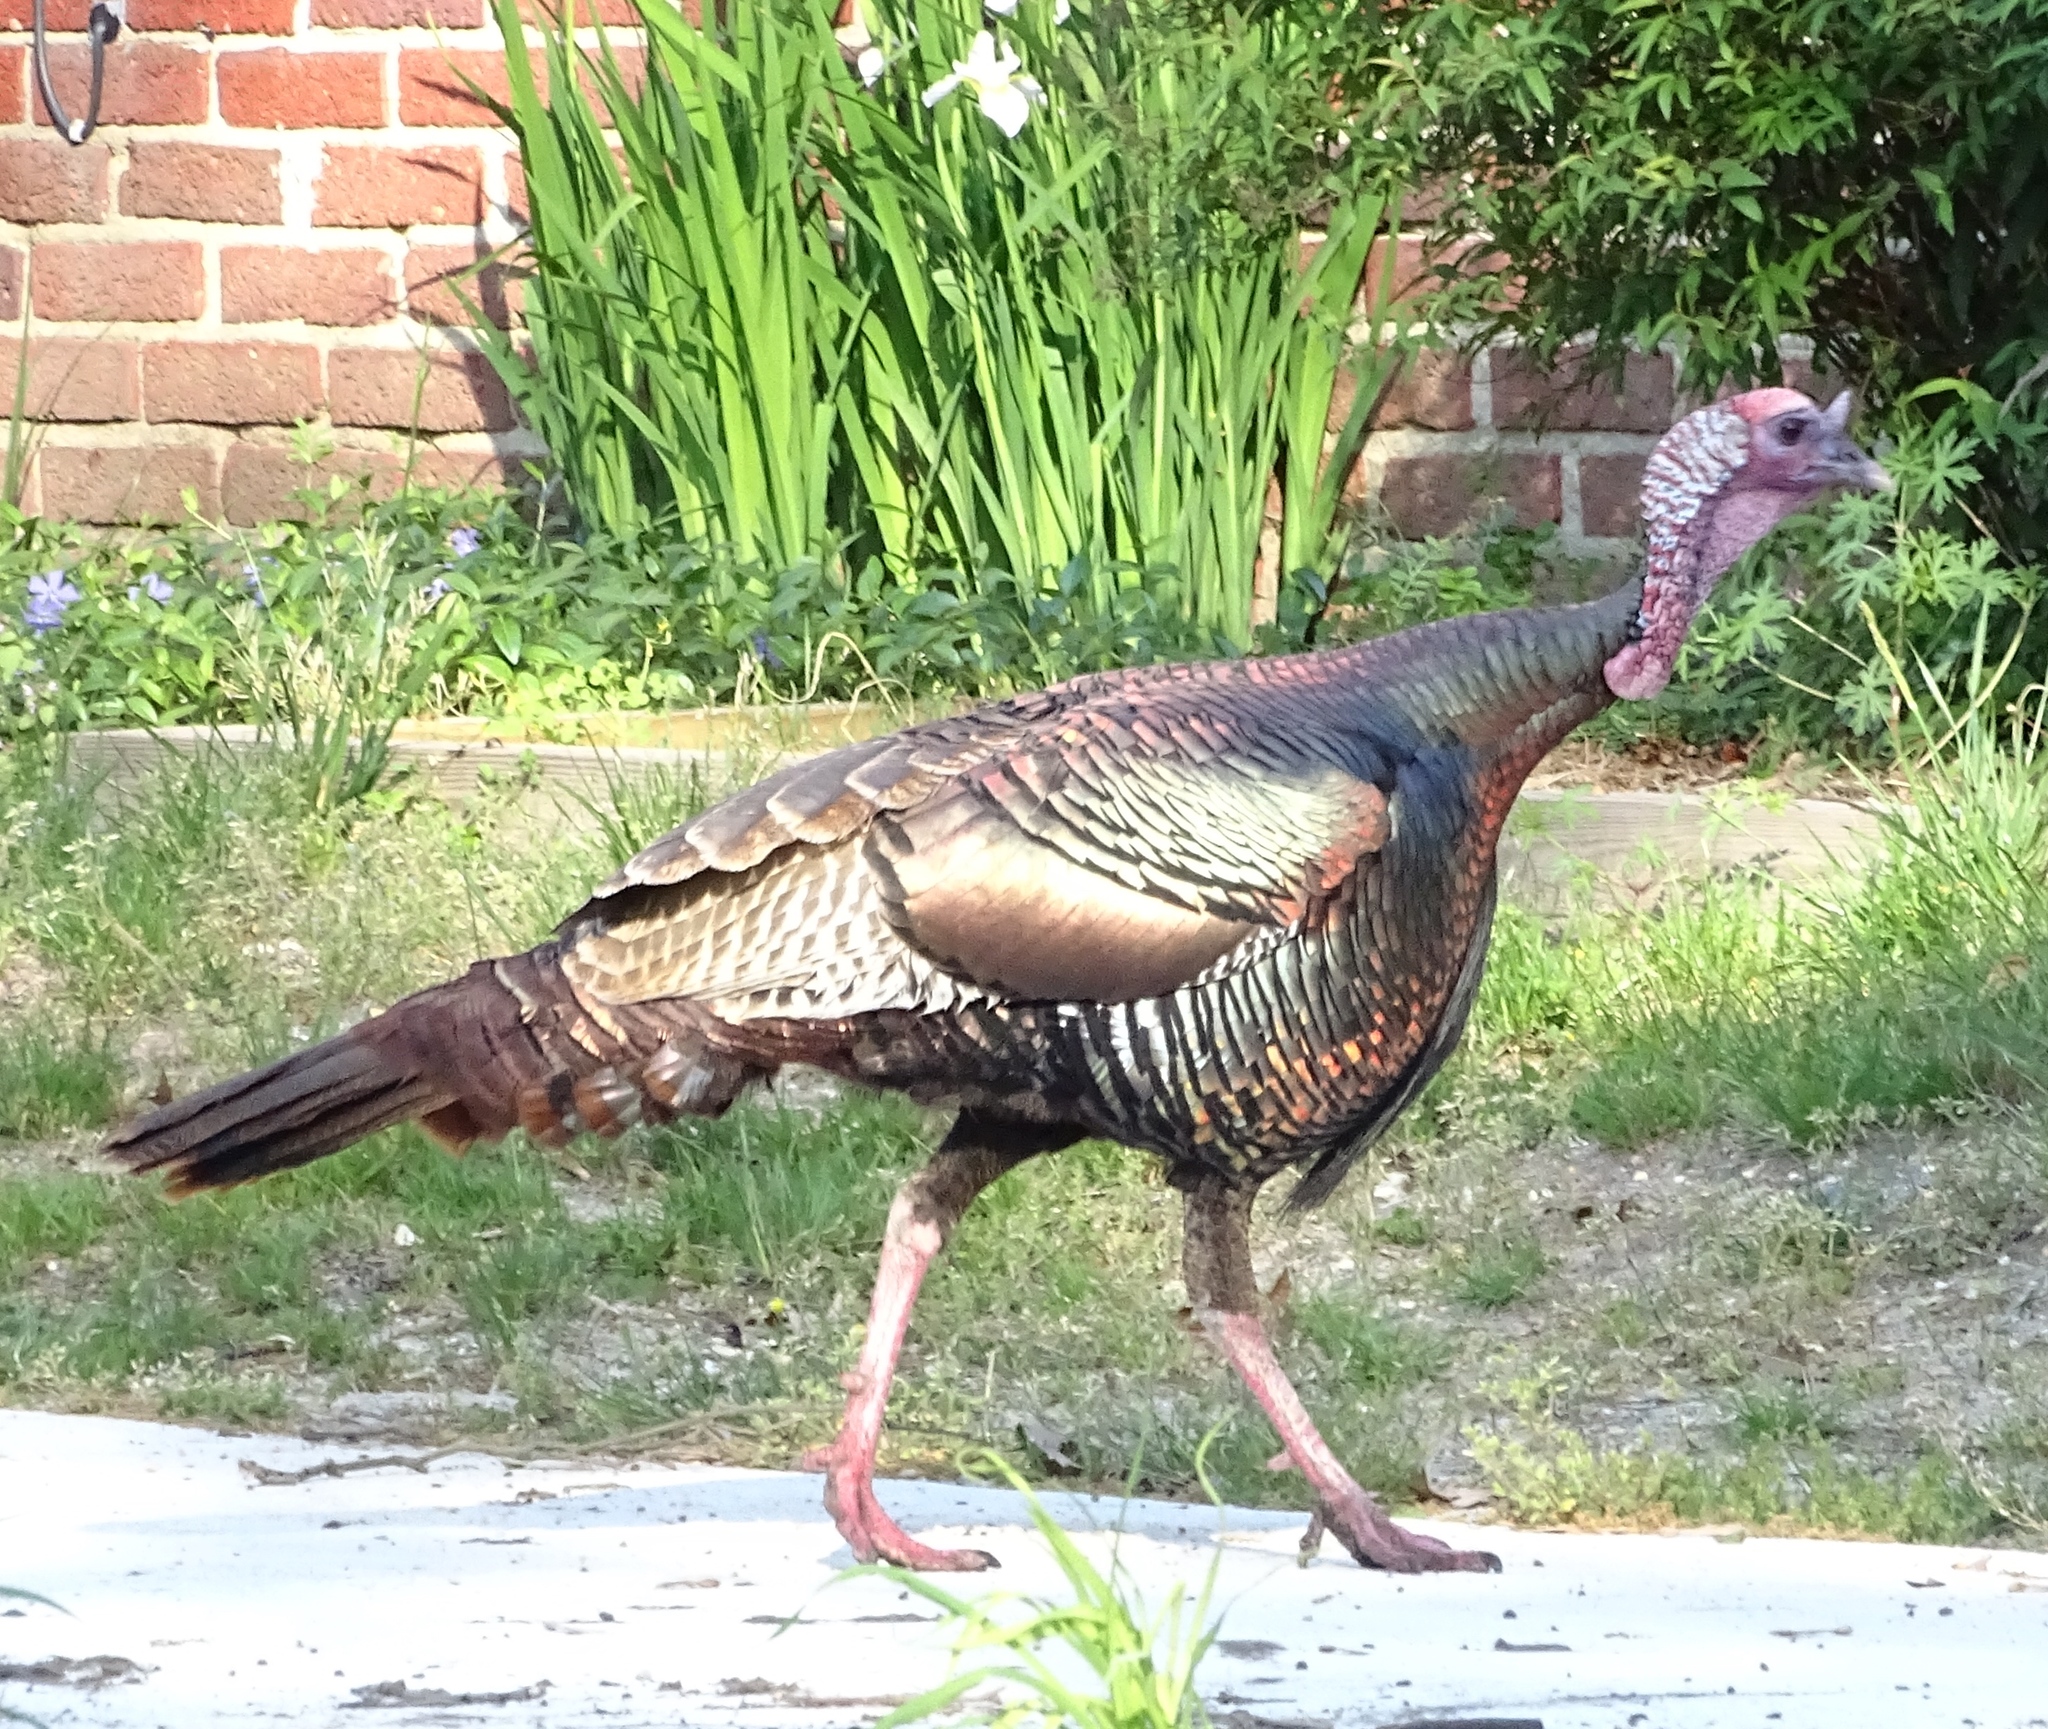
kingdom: Animalia
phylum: Chordata
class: Aves
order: Galliformes
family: Phasianidae
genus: Meleagris
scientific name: Meleagris gallopavo
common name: Wild turkey
